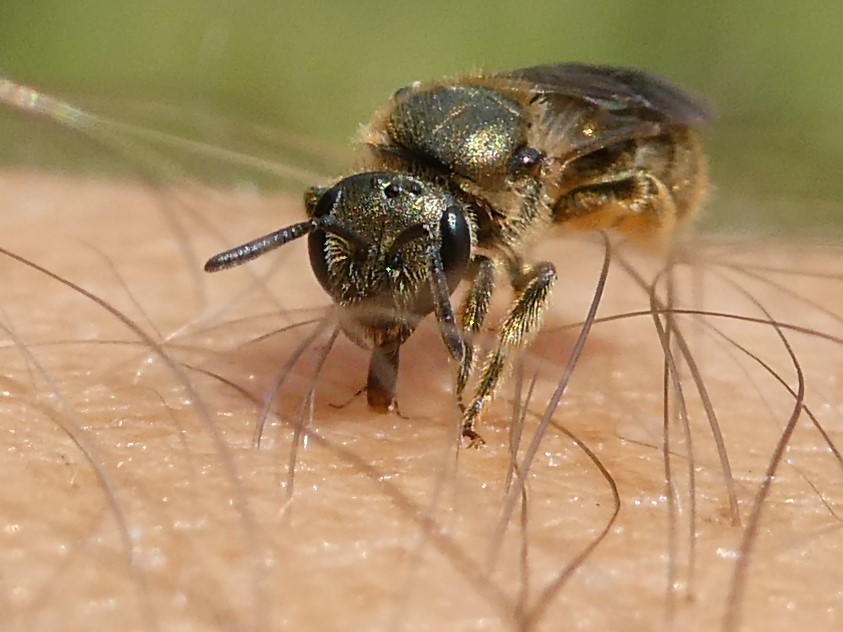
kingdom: Animalia
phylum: Arthropoda
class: Insecta
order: Hymenoptera
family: Halictidae
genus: Dialictus
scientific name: Dialictus
